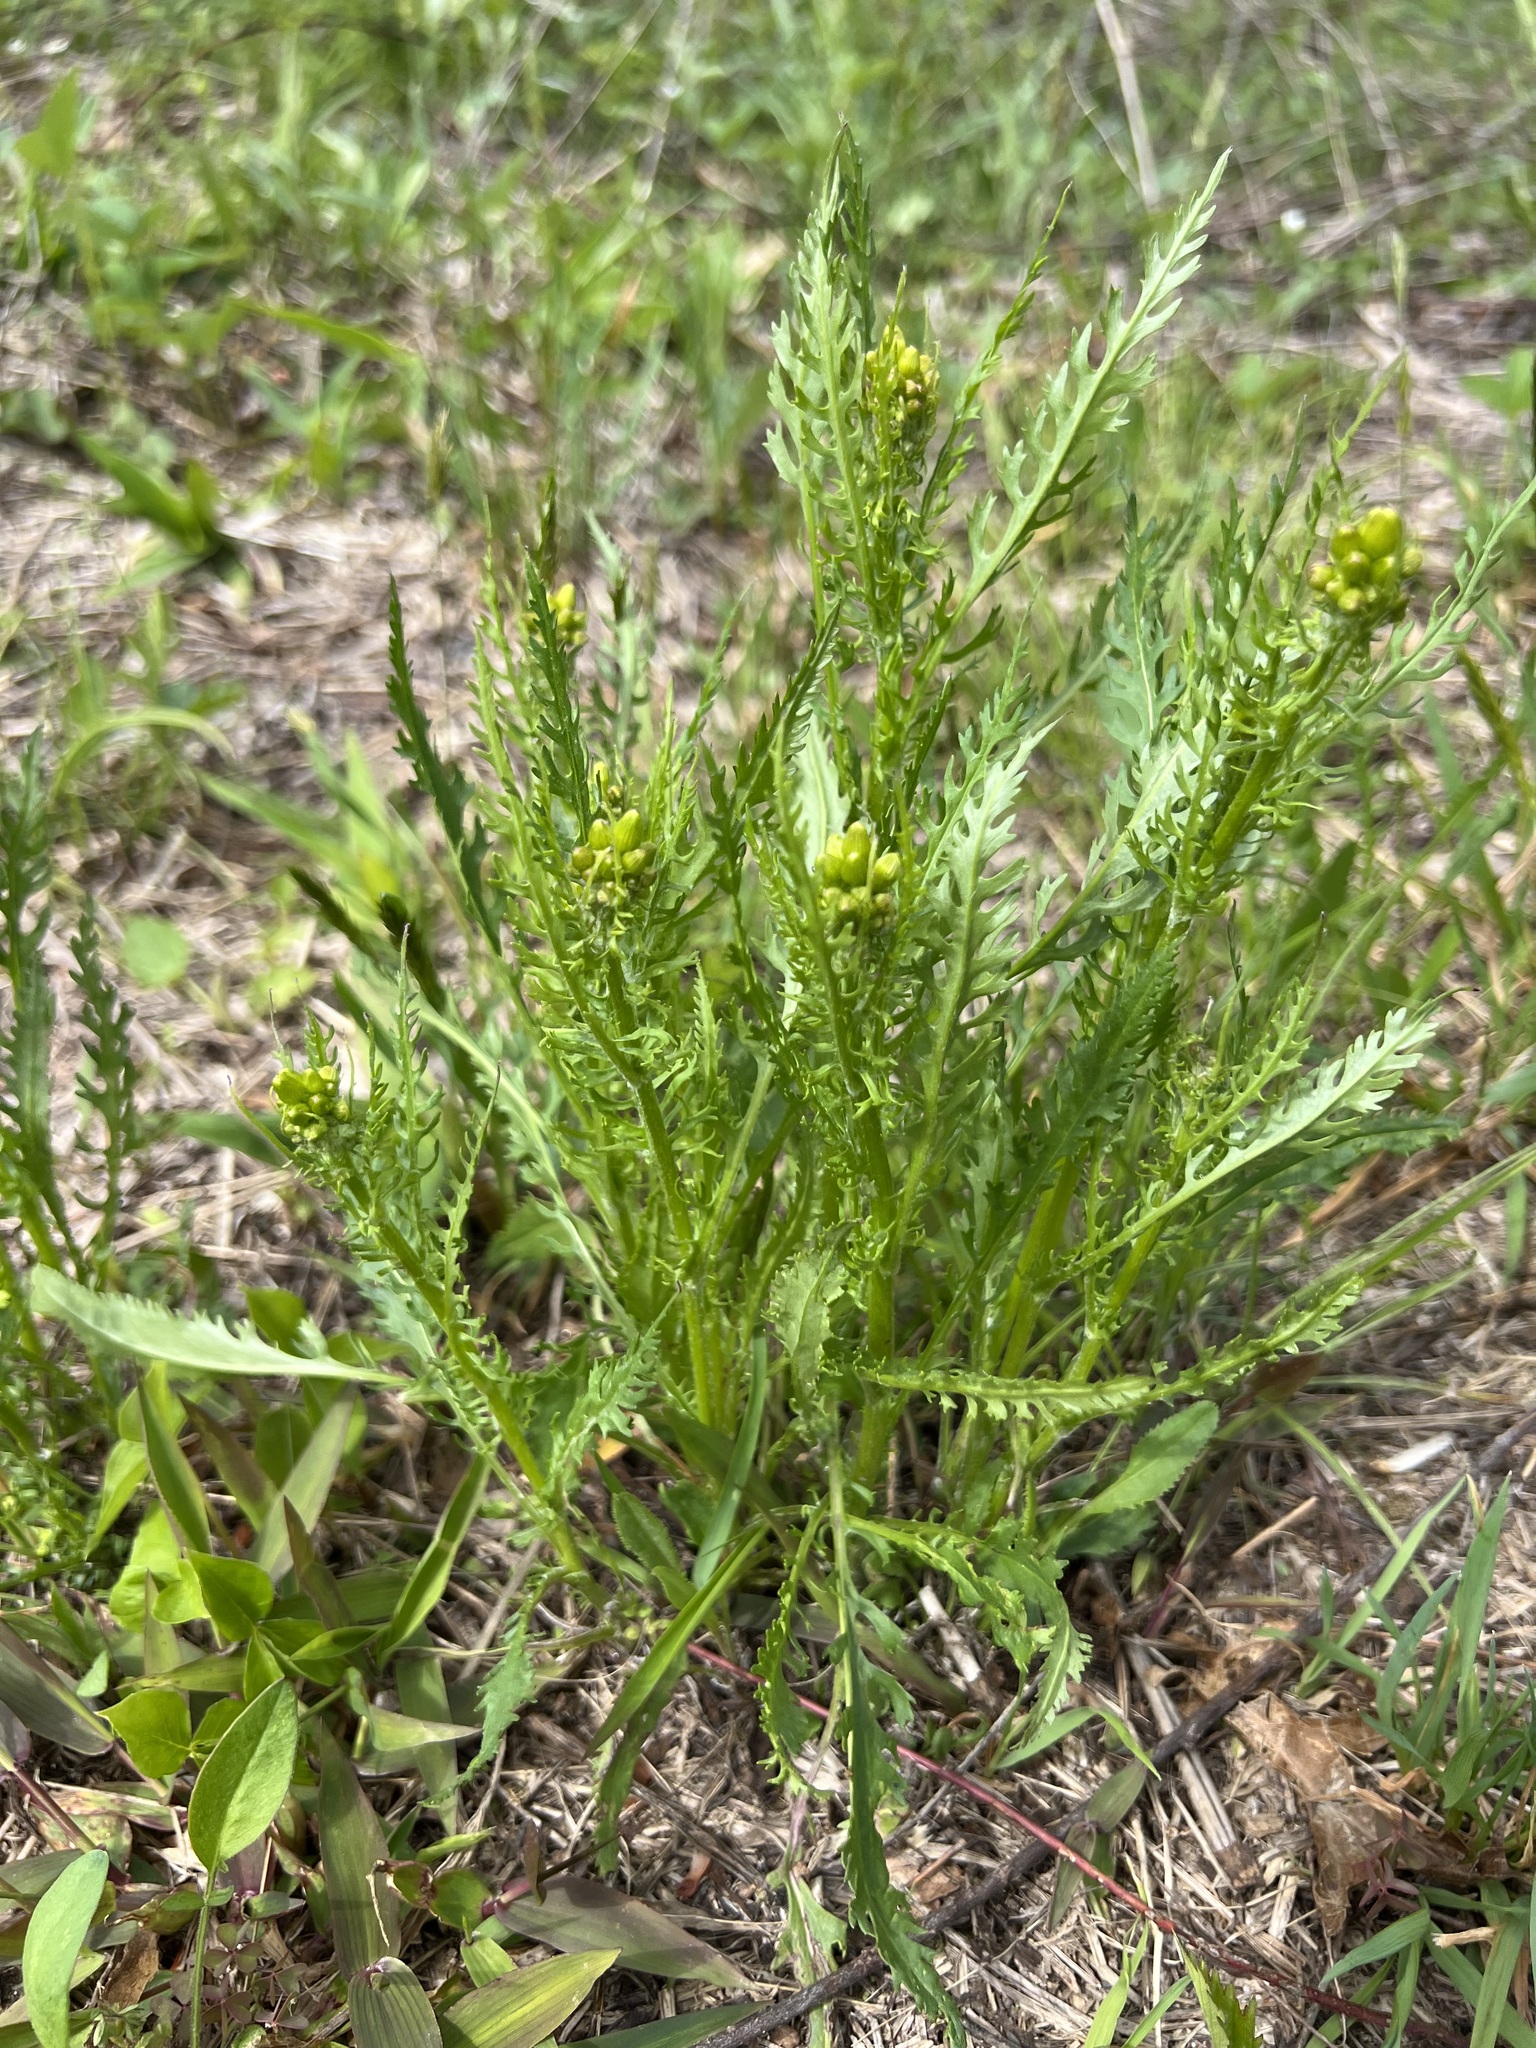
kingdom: Plantae
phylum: Tracheophyta
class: Magnoliopsida
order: Asterales
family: Asteraceae
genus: Packera
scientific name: Packera anonyma
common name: Small ragwort
